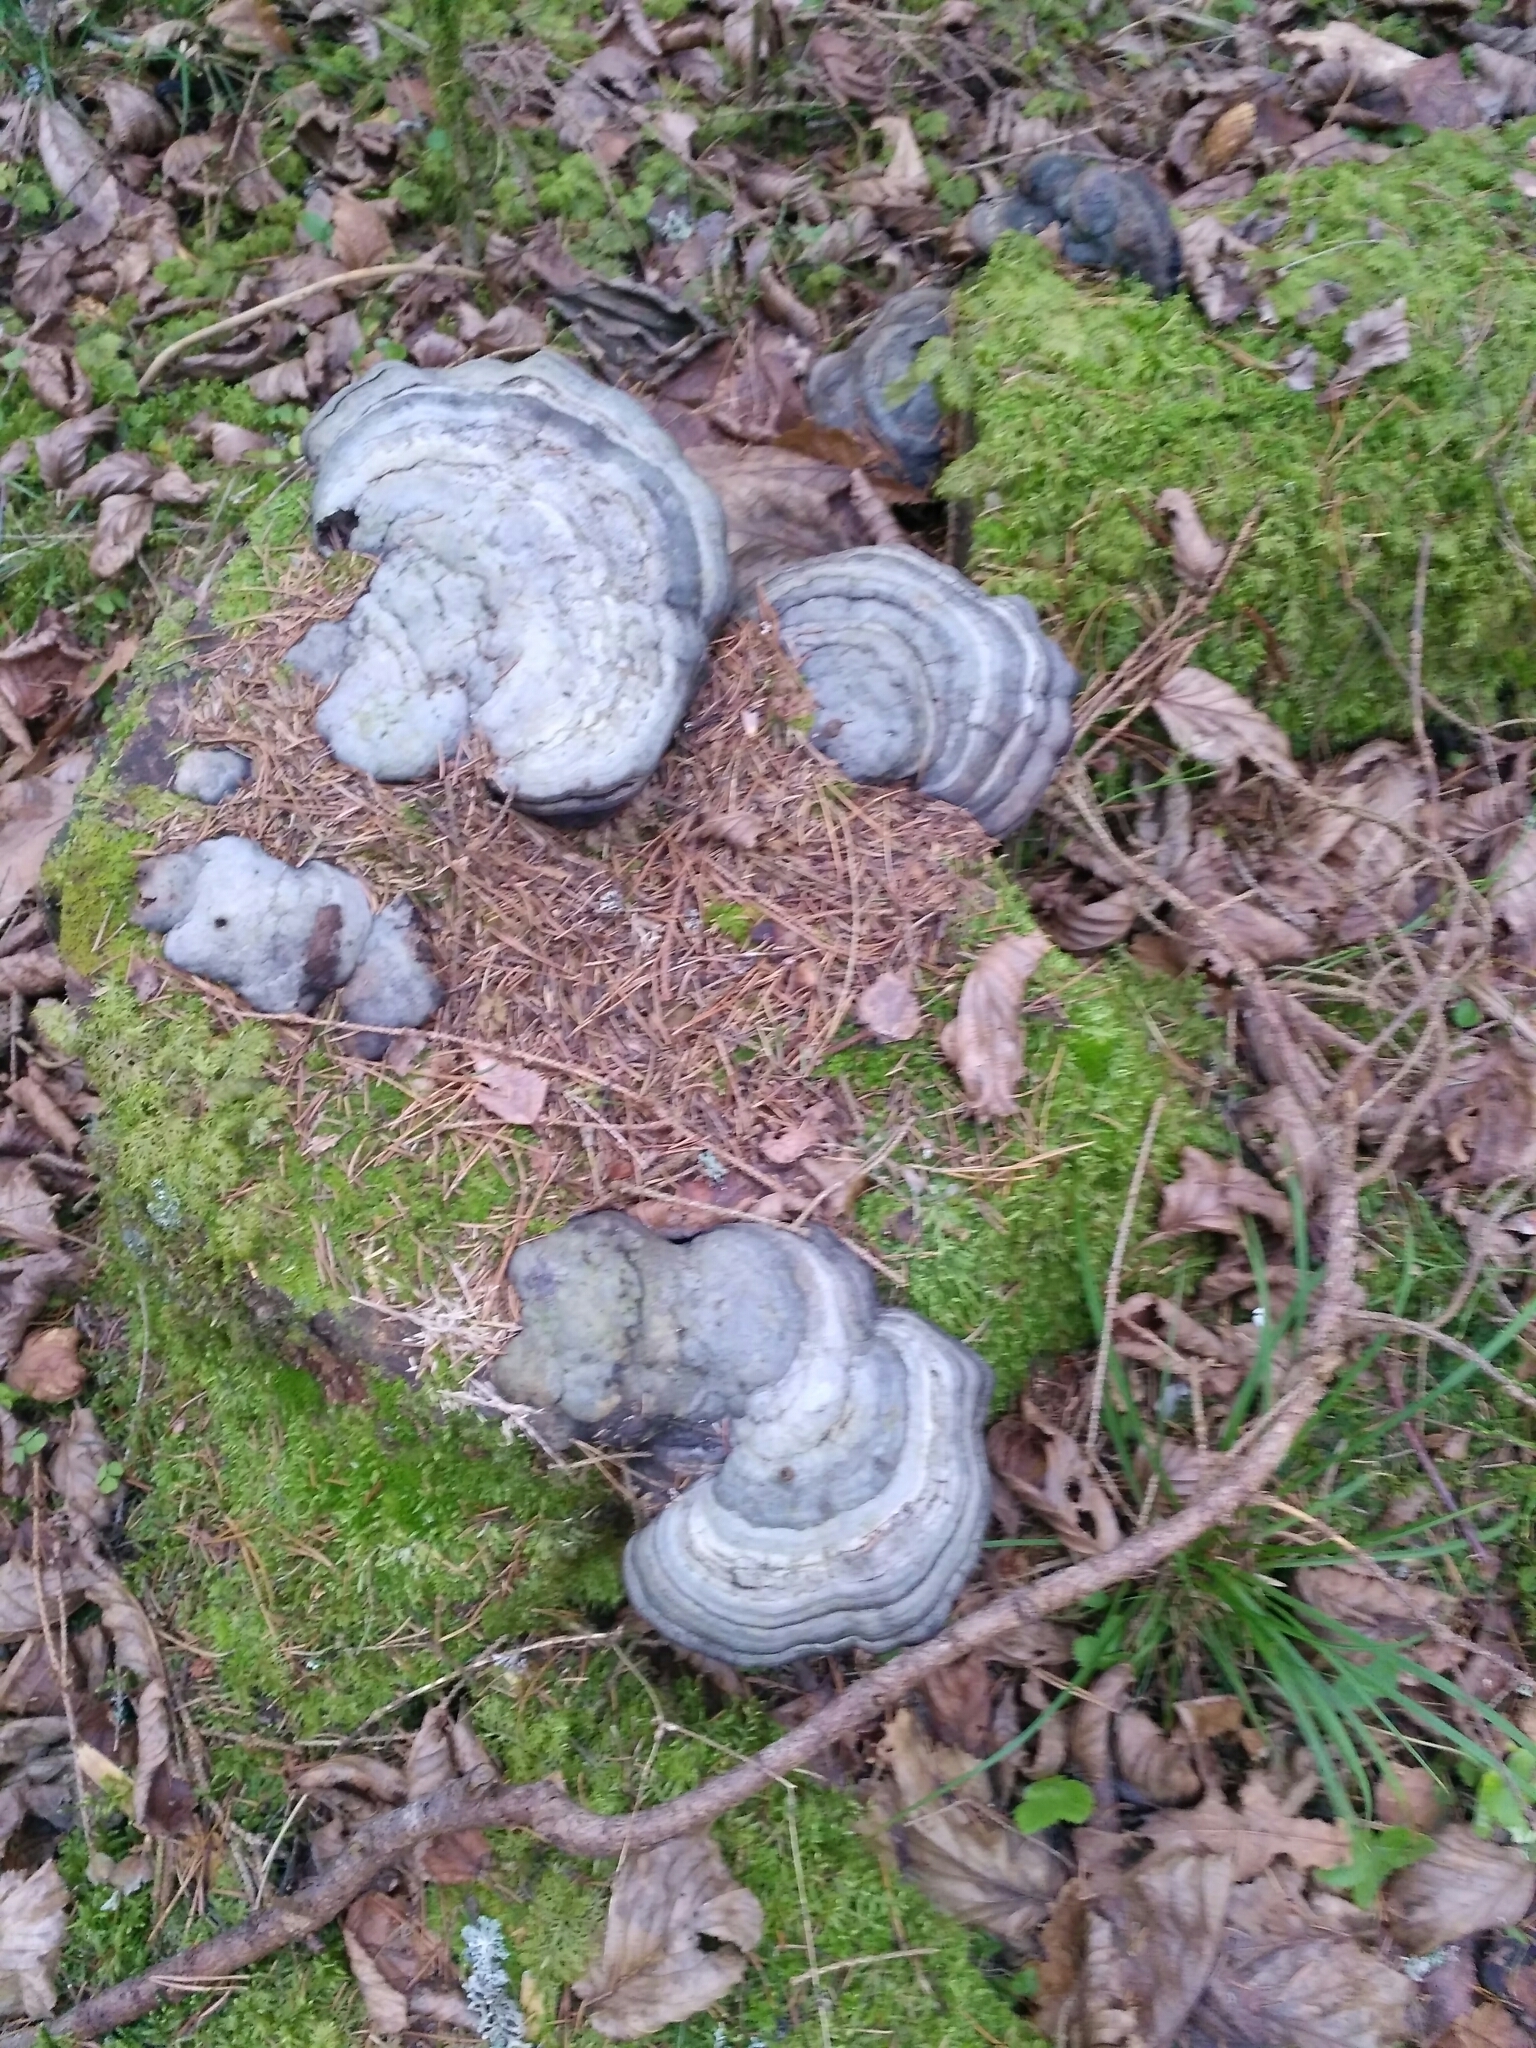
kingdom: Fungi
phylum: Basidiomycota
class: Agaricomycetes
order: Polyporales
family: Polyporaceae
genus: Fomes
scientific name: Fomes fomentarius
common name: Hoof fungus
